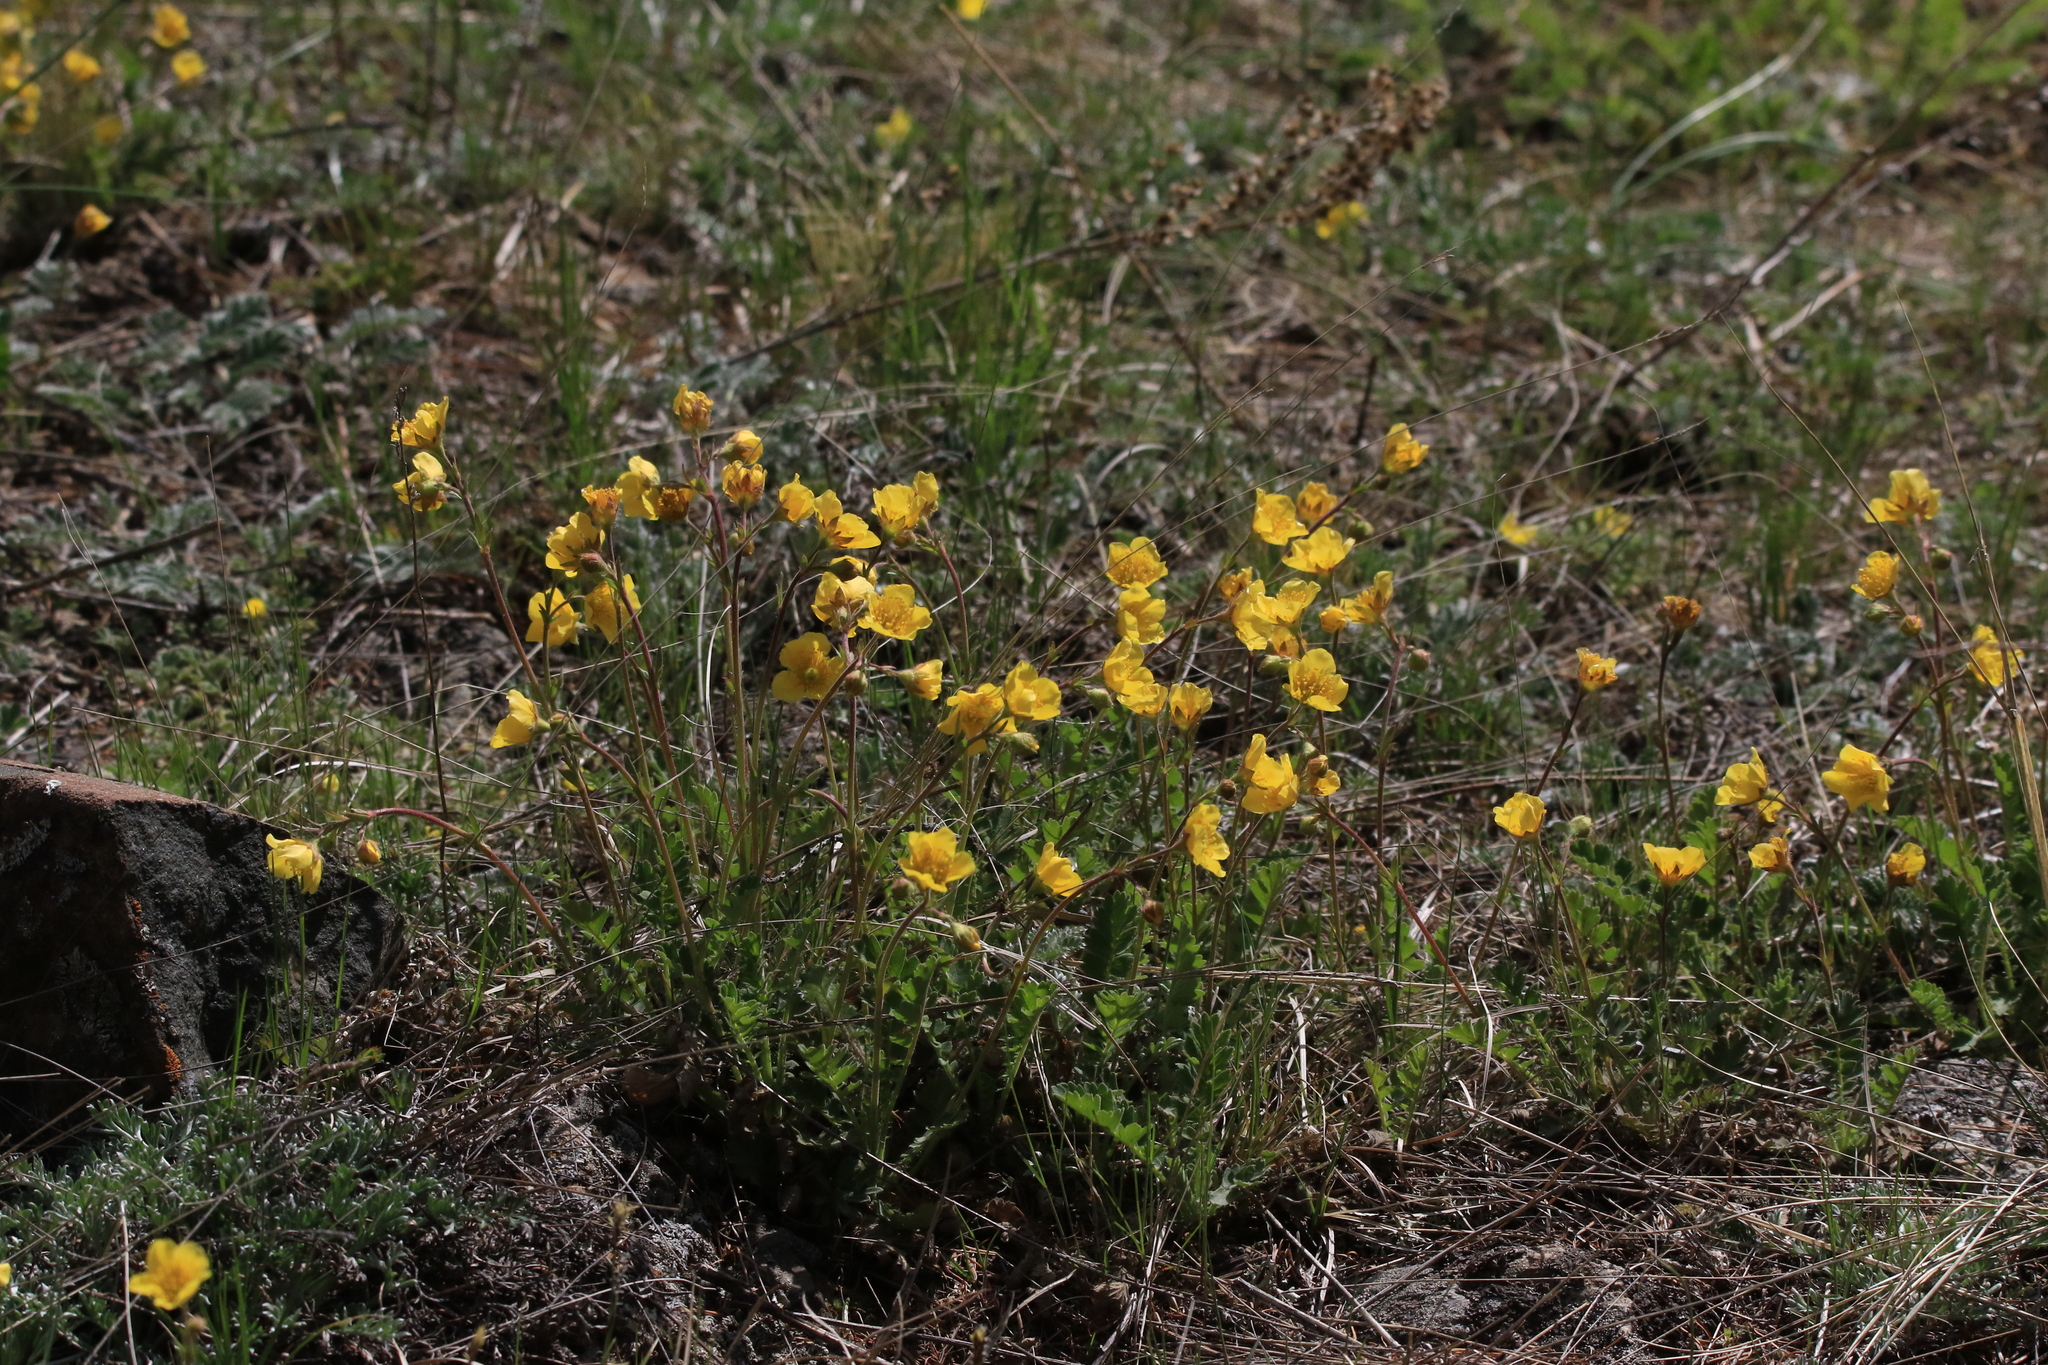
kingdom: Plantae
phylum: Tracheophyta
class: Magnoliopsida
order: Rosales
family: Rosaceae
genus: Geum
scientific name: Geum geoides
